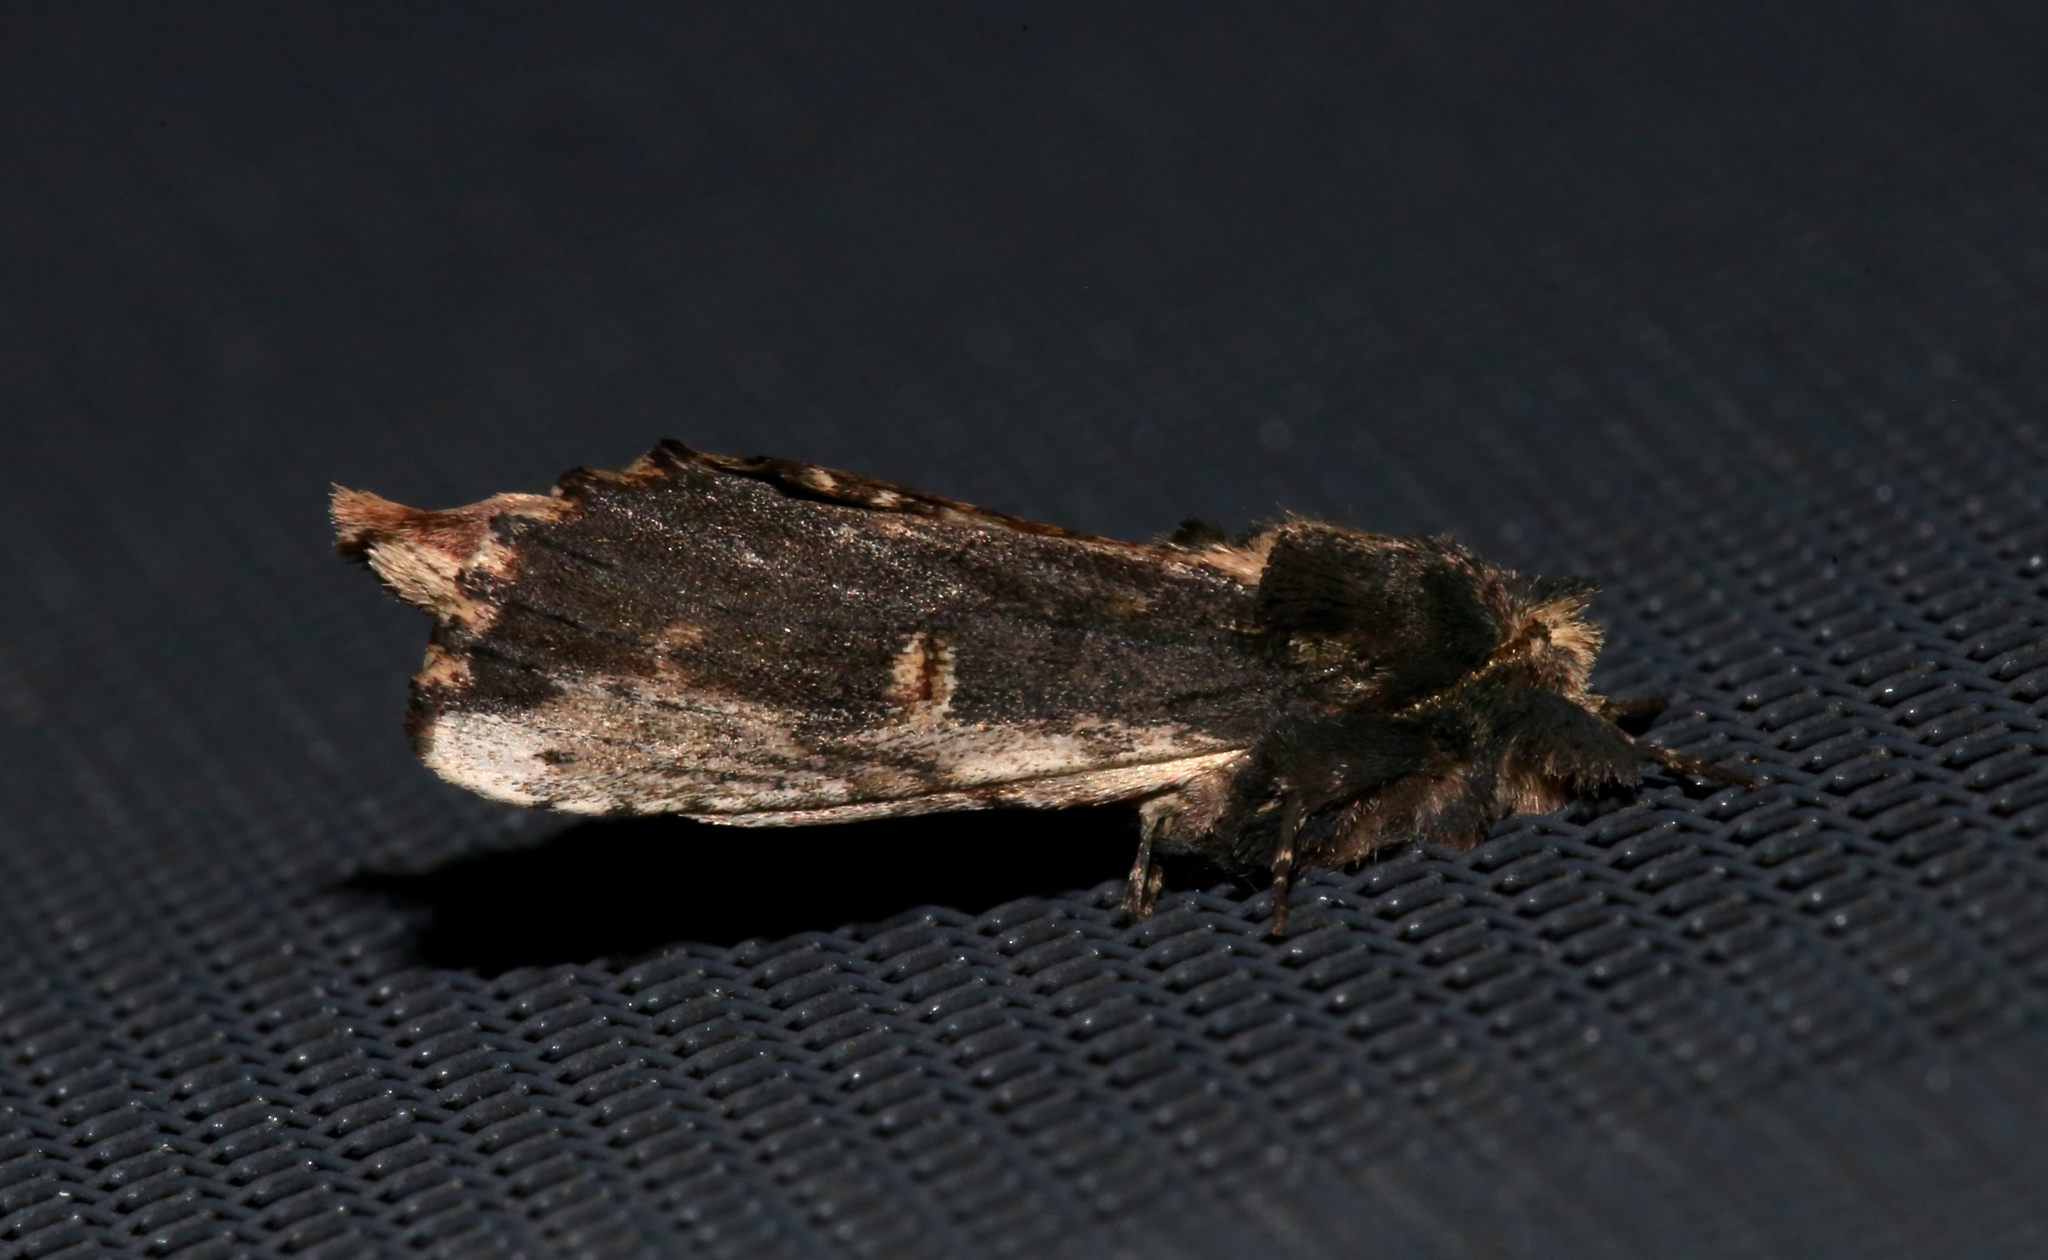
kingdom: Animalia
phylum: Arthropoda
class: Insecta
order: Lepidoptera
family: Notodontidae
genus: Schizura
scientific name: Schizura ipomaeae
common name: Morning-glory prominent
